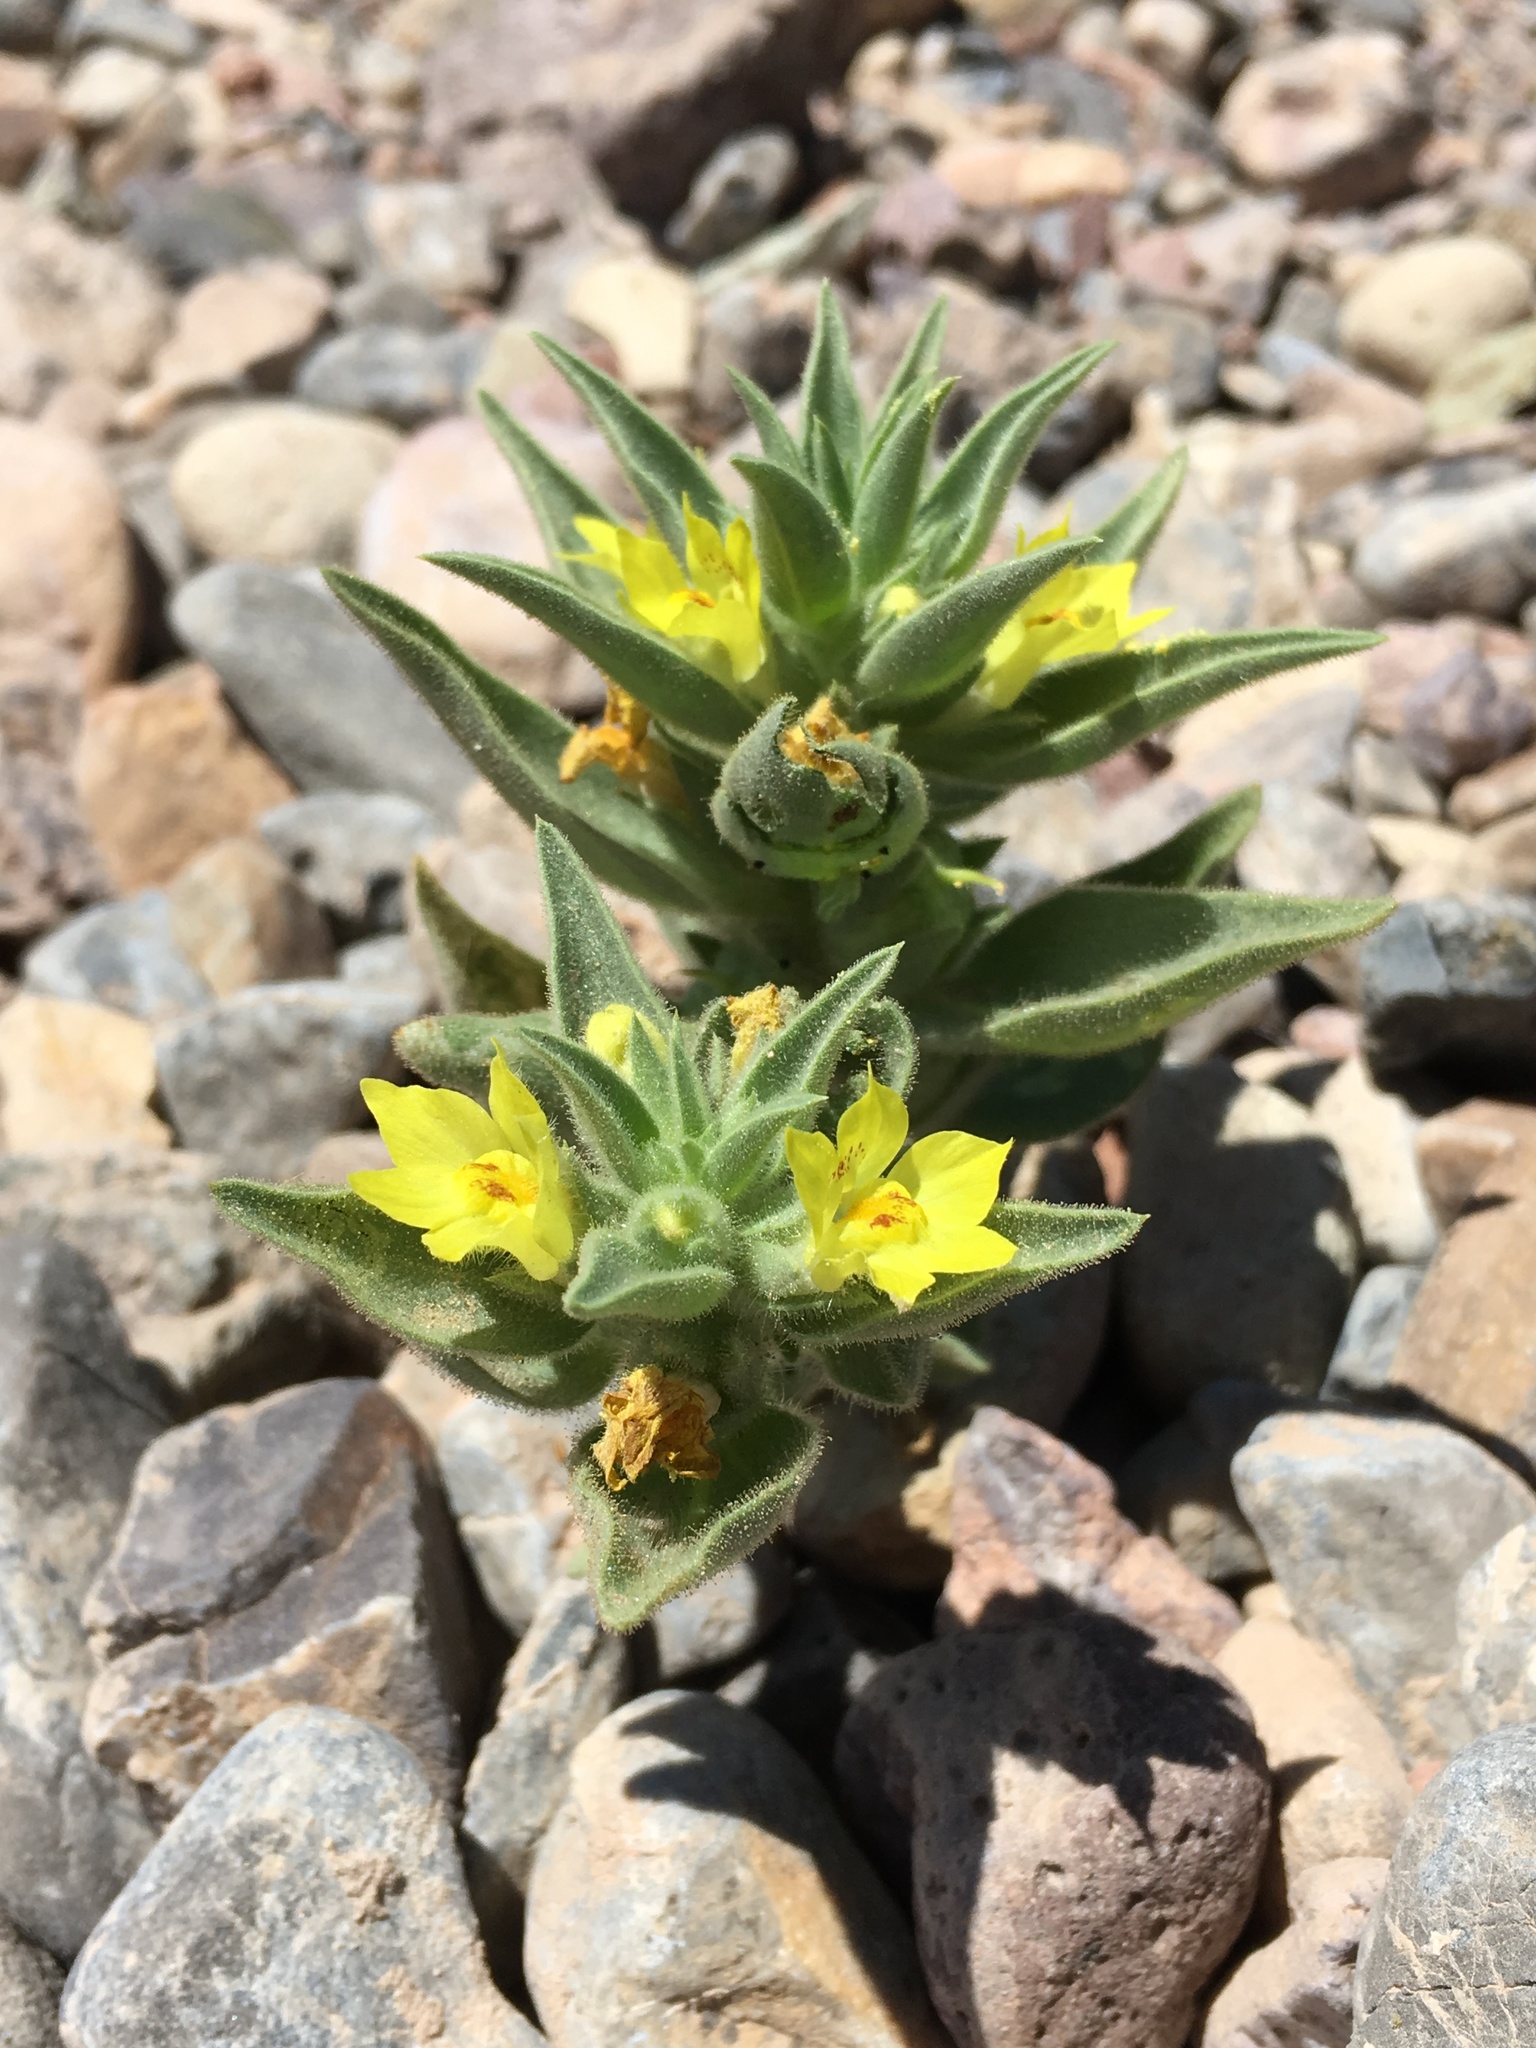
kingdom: Plantae
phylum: Tracheophyta
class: Magnoliopsida
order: Lamiales
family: Plantaginaceae
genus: Mohavea
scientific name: Mohavea breviflora
